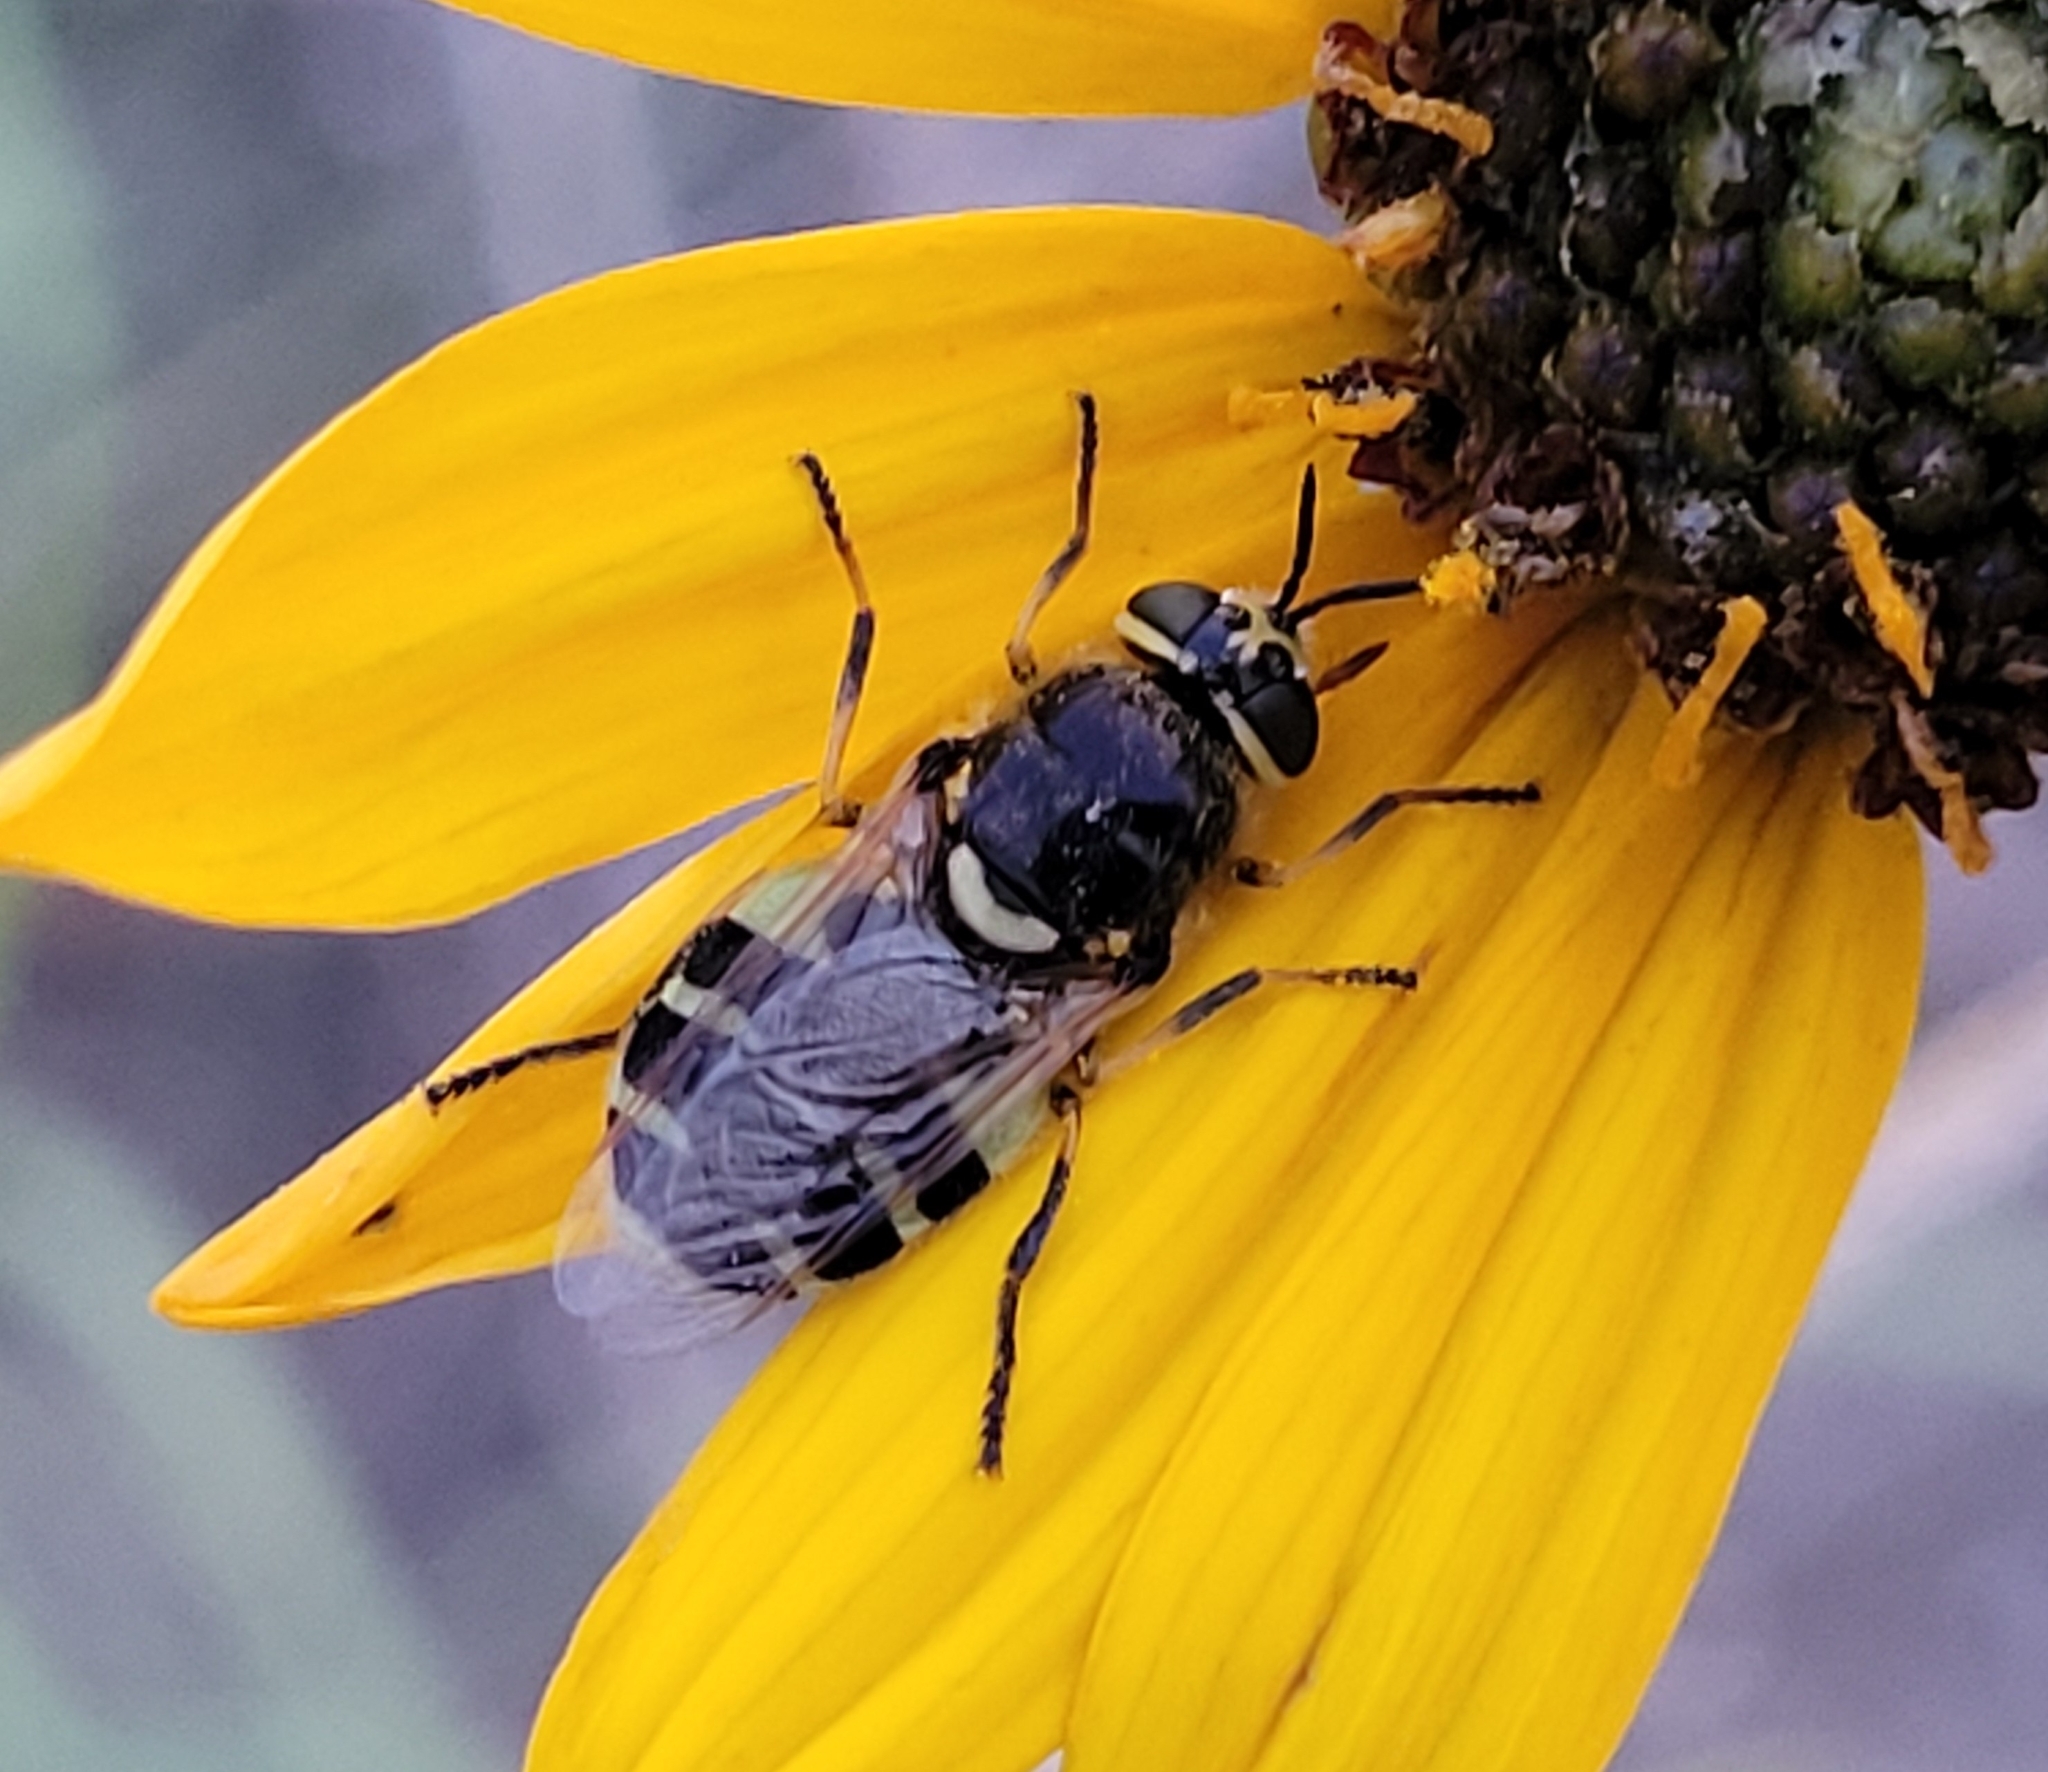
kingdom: Animalia
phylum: Arthropoda
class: Insecta
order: Diptera
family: Stratiomyidae
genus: Anoplodonta
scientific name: Anoplodonta nigrirostris
